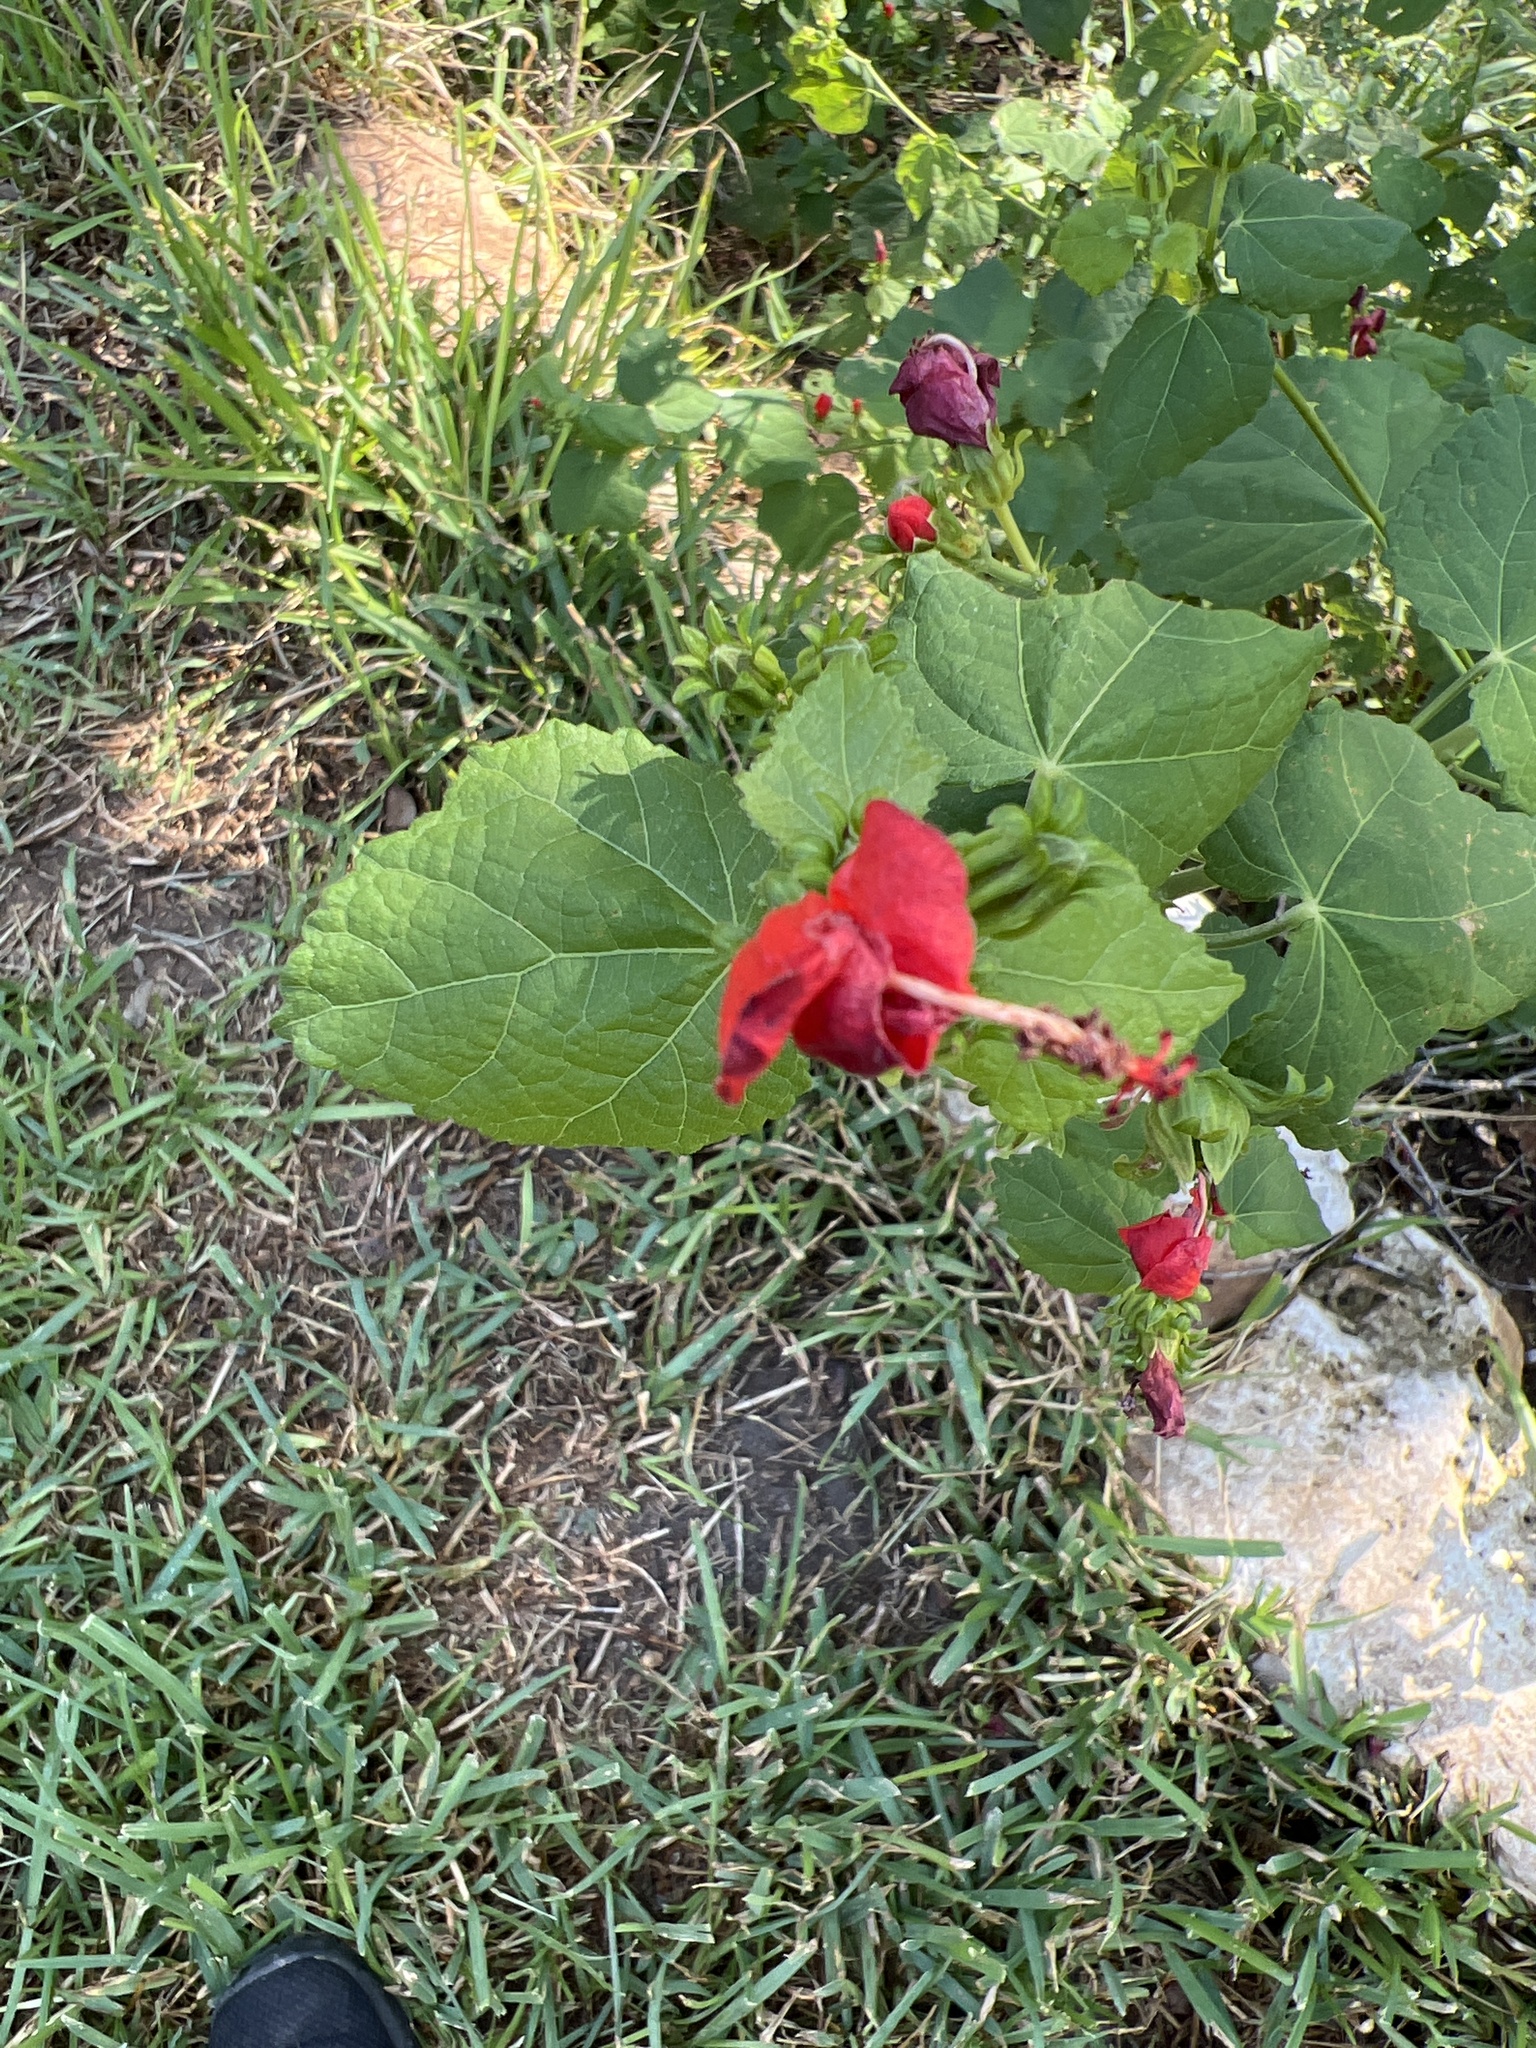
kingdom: Plantae
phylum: Tracheophyta
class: Magnoliopsida
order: Malvales
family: Malvaceae
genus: Malvaviscus
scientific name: Malvaviscus arboreus
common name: Wax mallow
